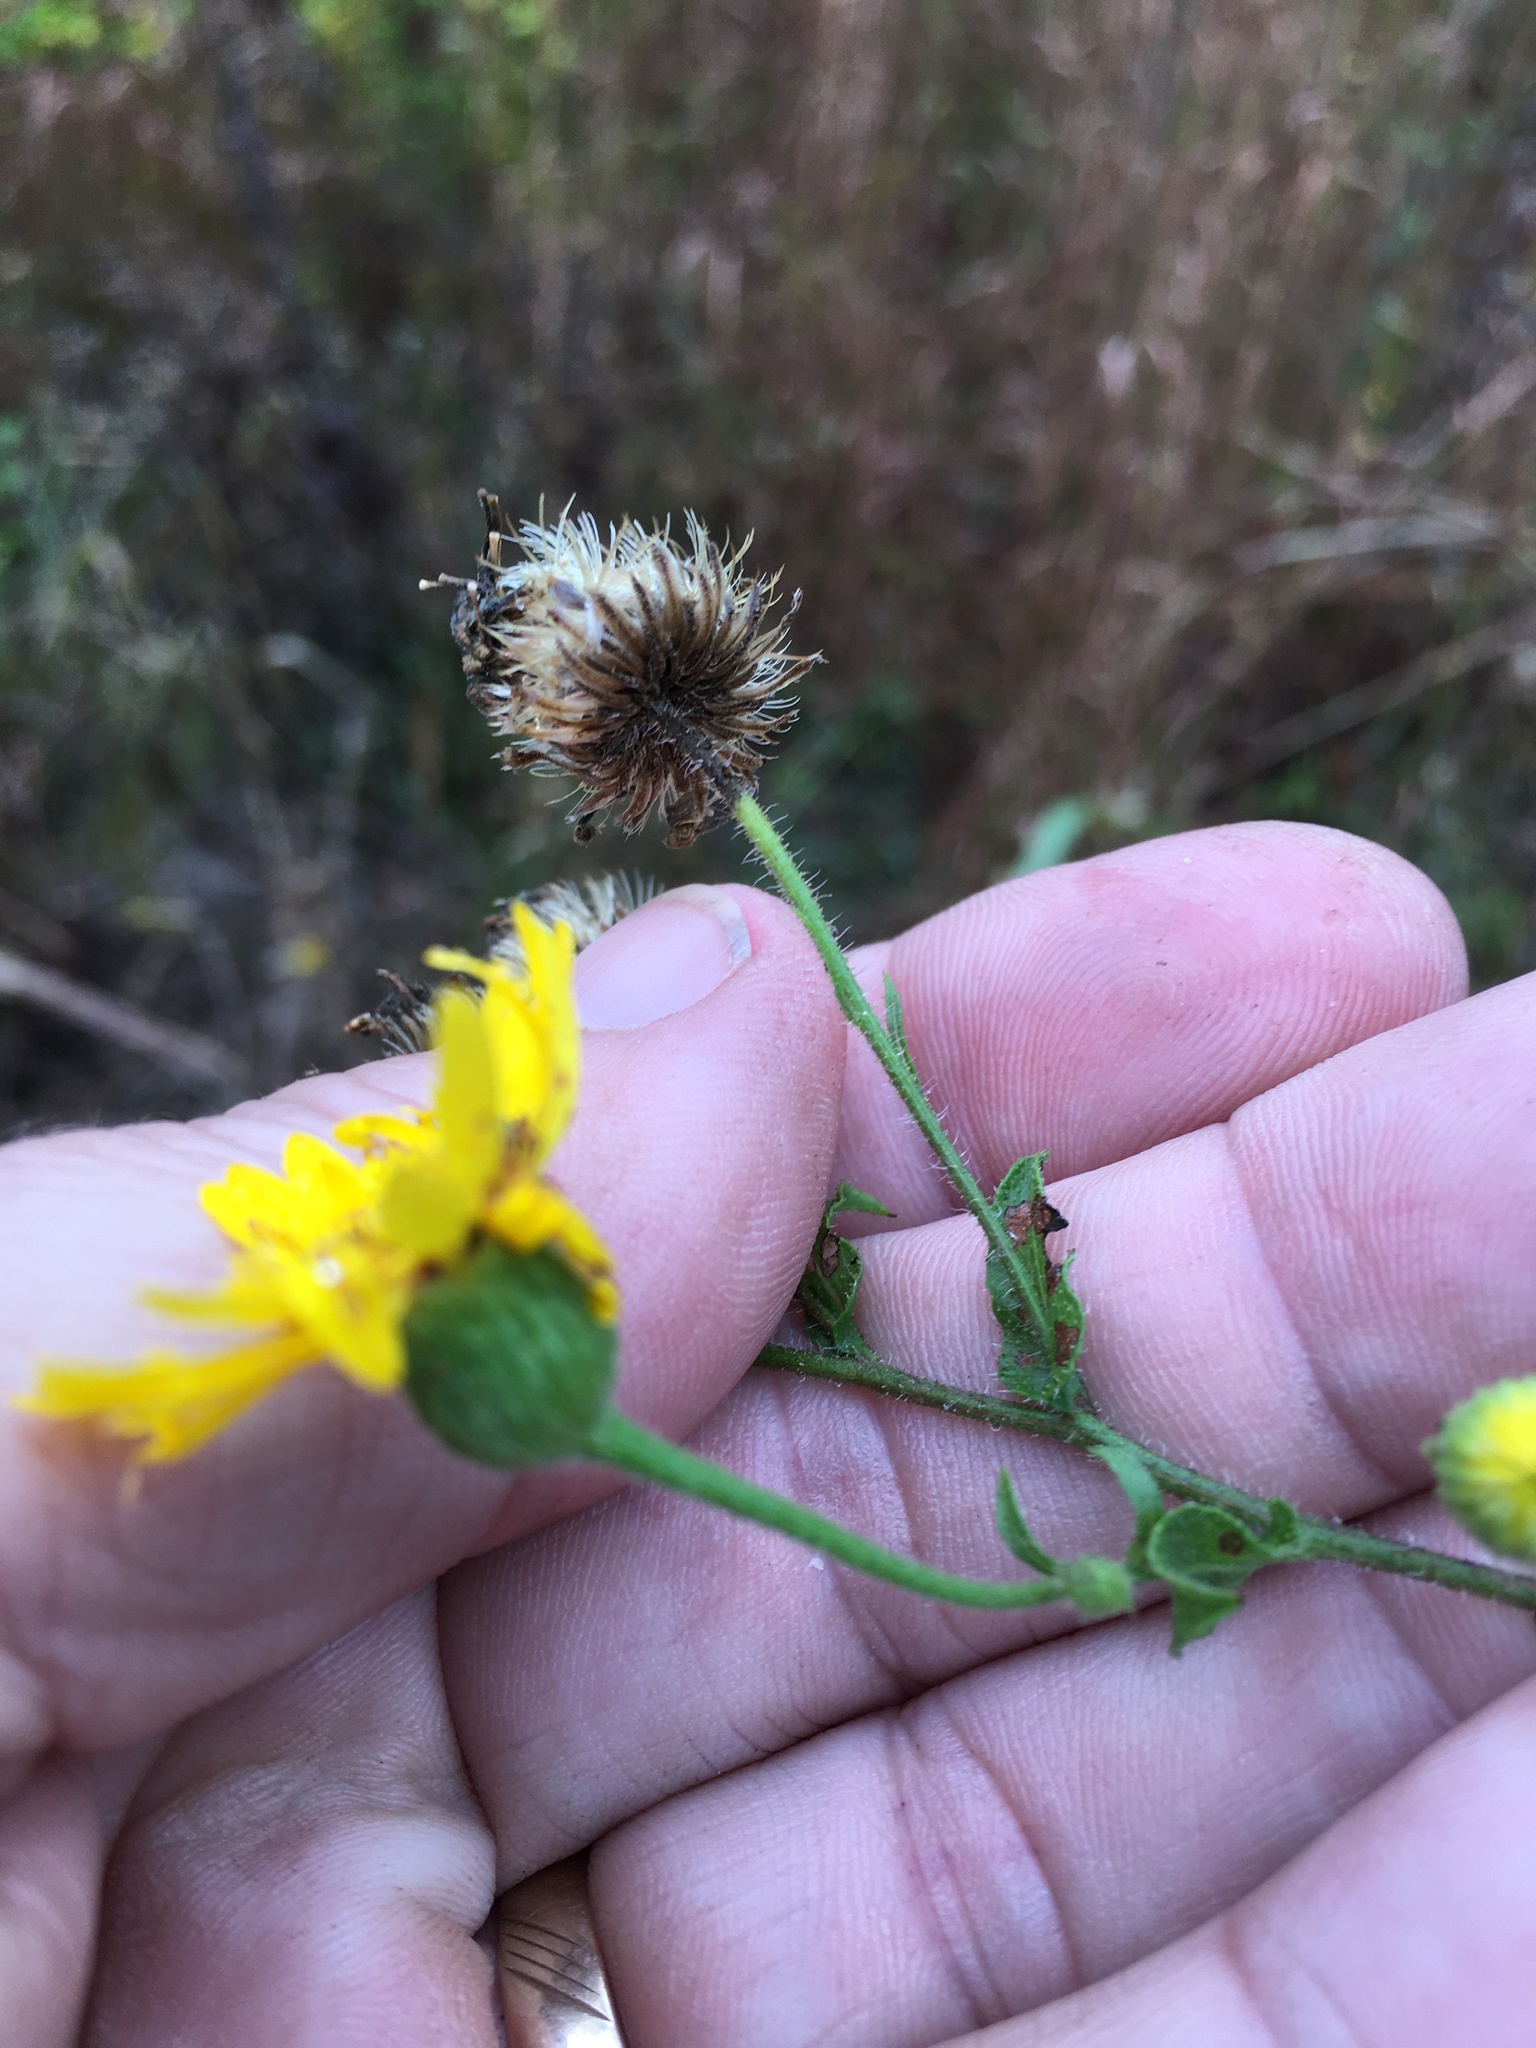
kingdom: Plantae
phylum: Tracheophyta
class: Magnoliopsida
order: Asterales
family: Asteraceae
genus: Heterotheca
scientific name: Heterotheca subaxillaris
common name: Camphorweed
